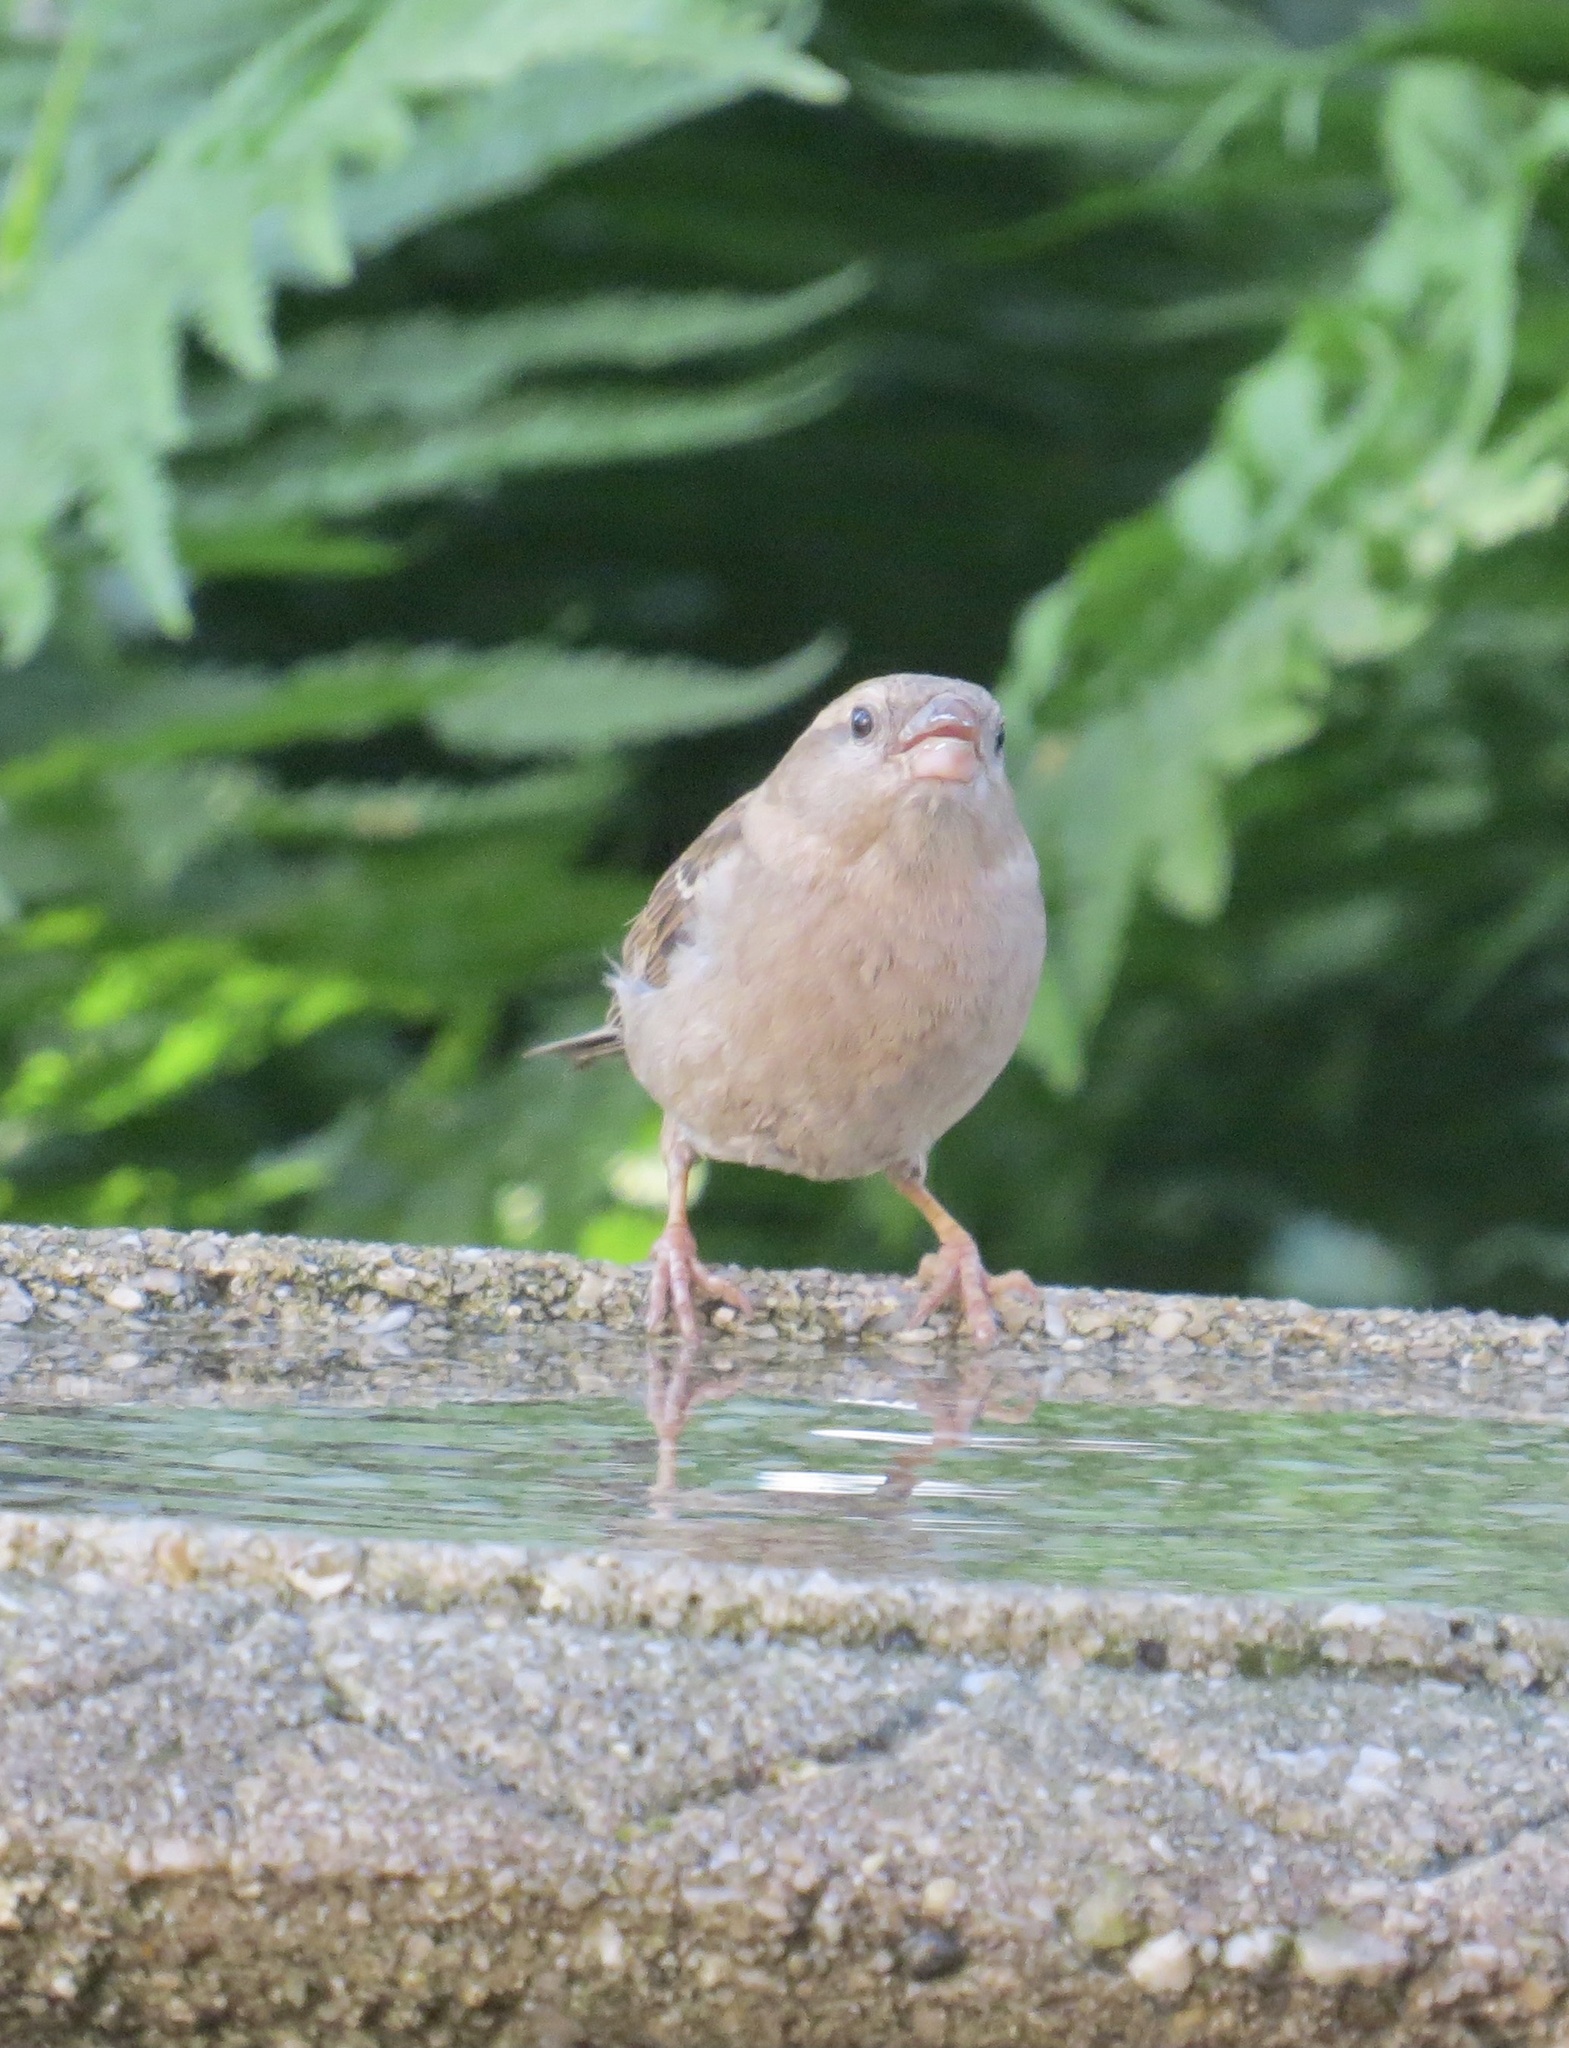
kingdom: Animalia
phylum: Chordata
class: Aves
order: Passeriformes
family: Passeridae
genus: Passer
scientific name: Passer domesticus
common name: House sparrow
